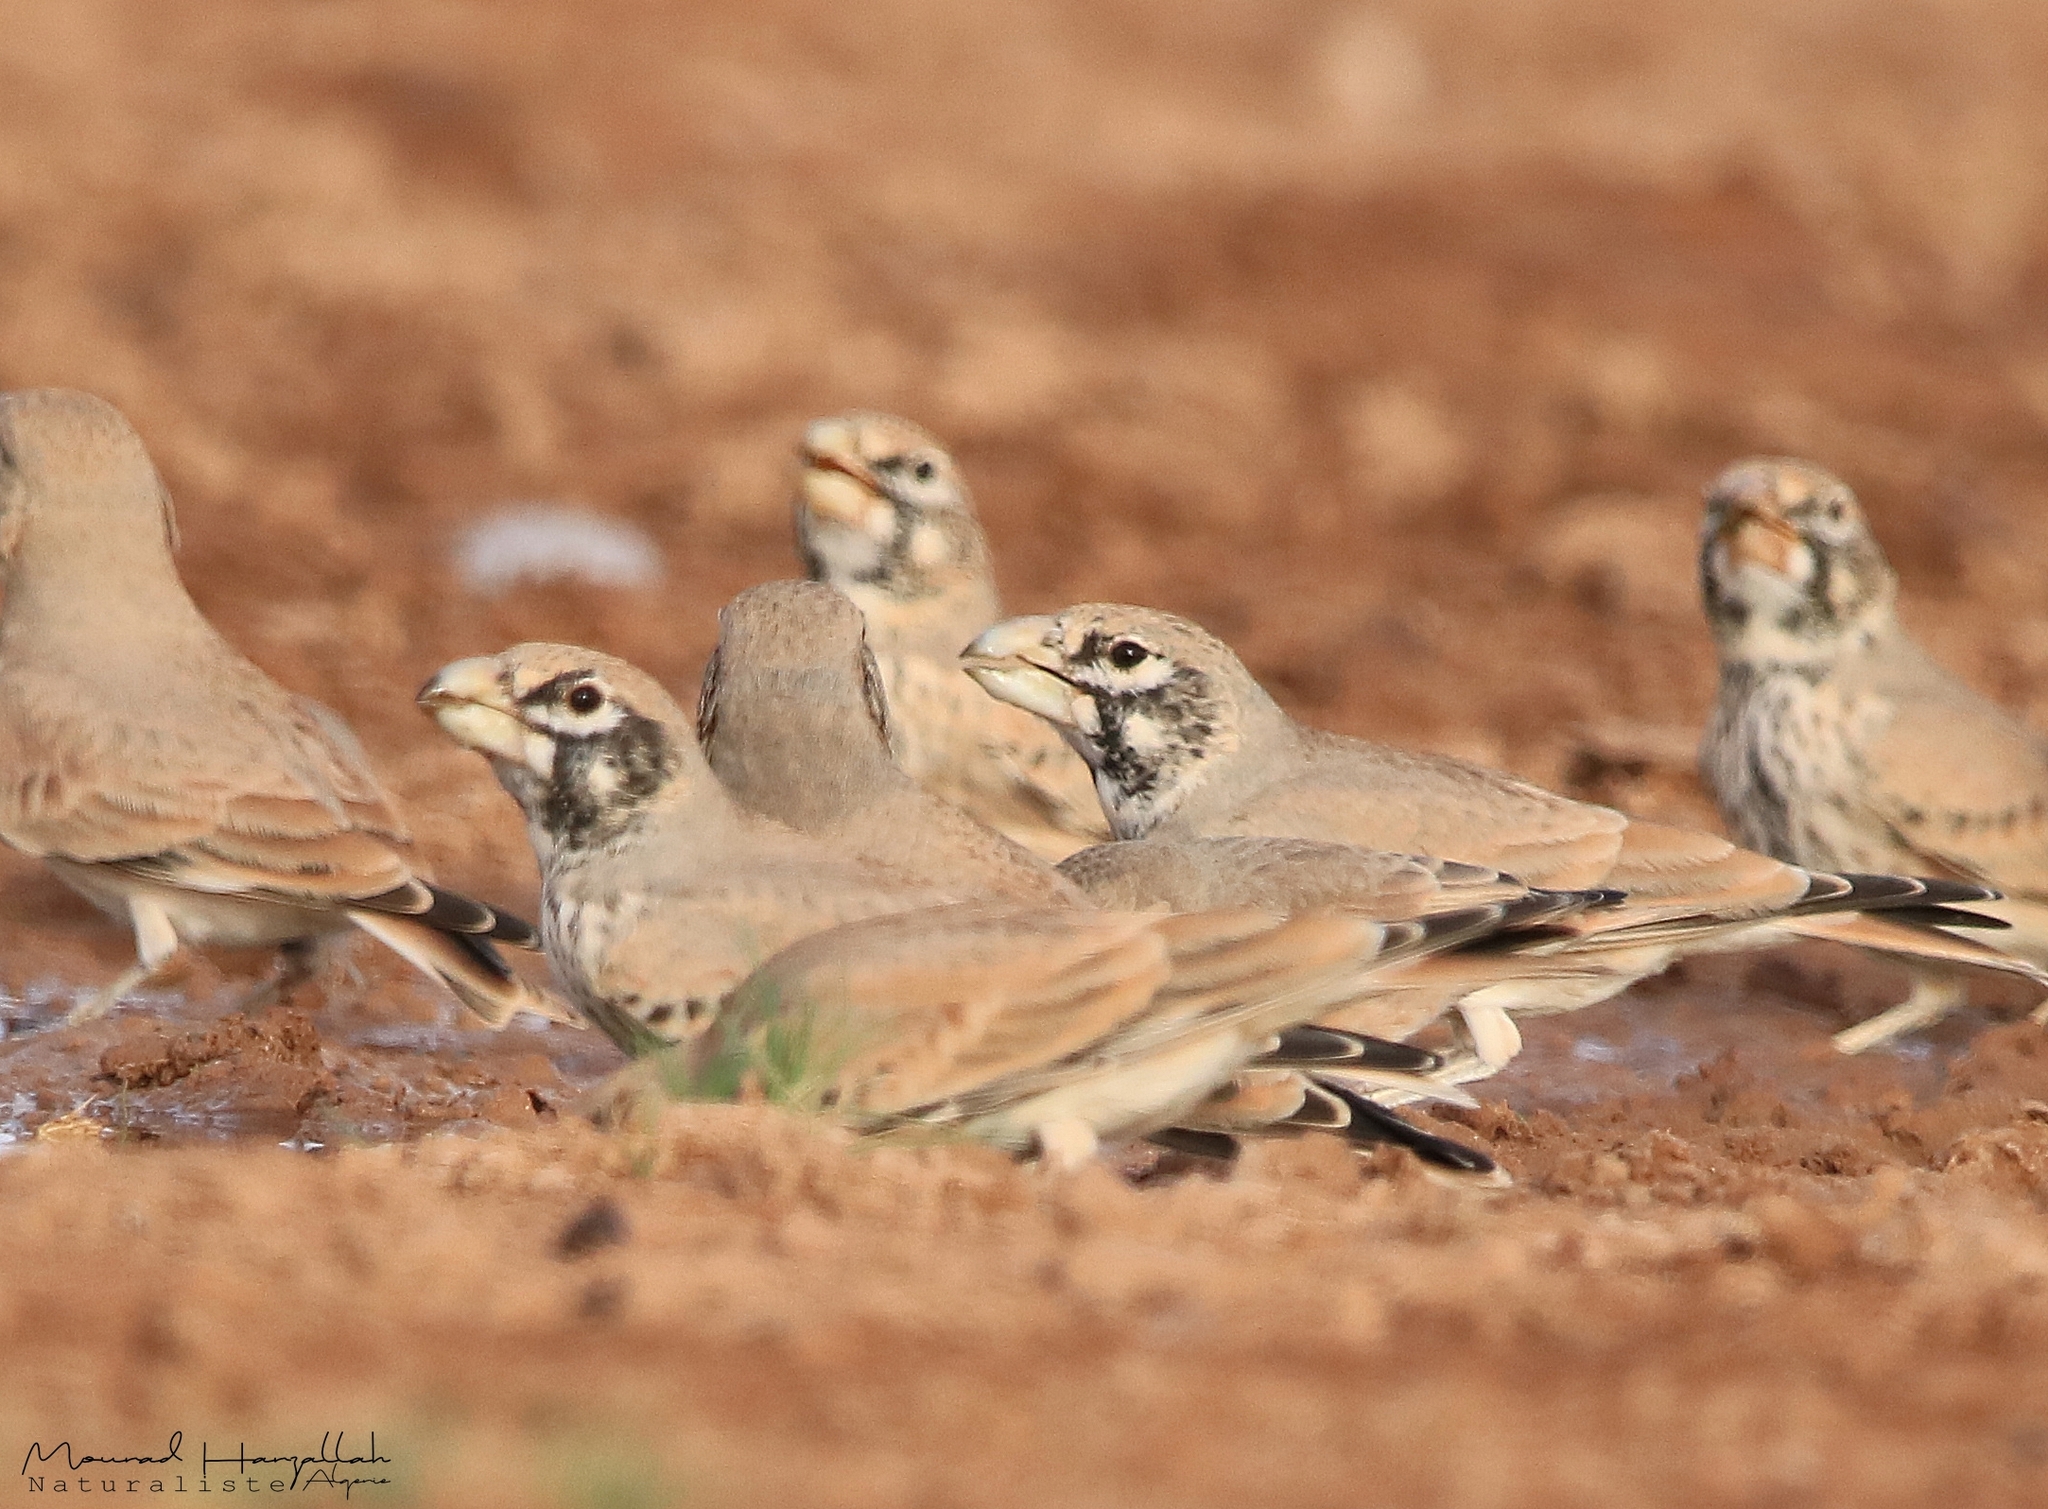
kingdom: Animalia
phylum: Chordata
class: Aves
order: Passeriformes
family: Alaudidae
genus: Ramphocoris
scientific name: Ramphocoris clotbey
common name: Thick-billed lark
